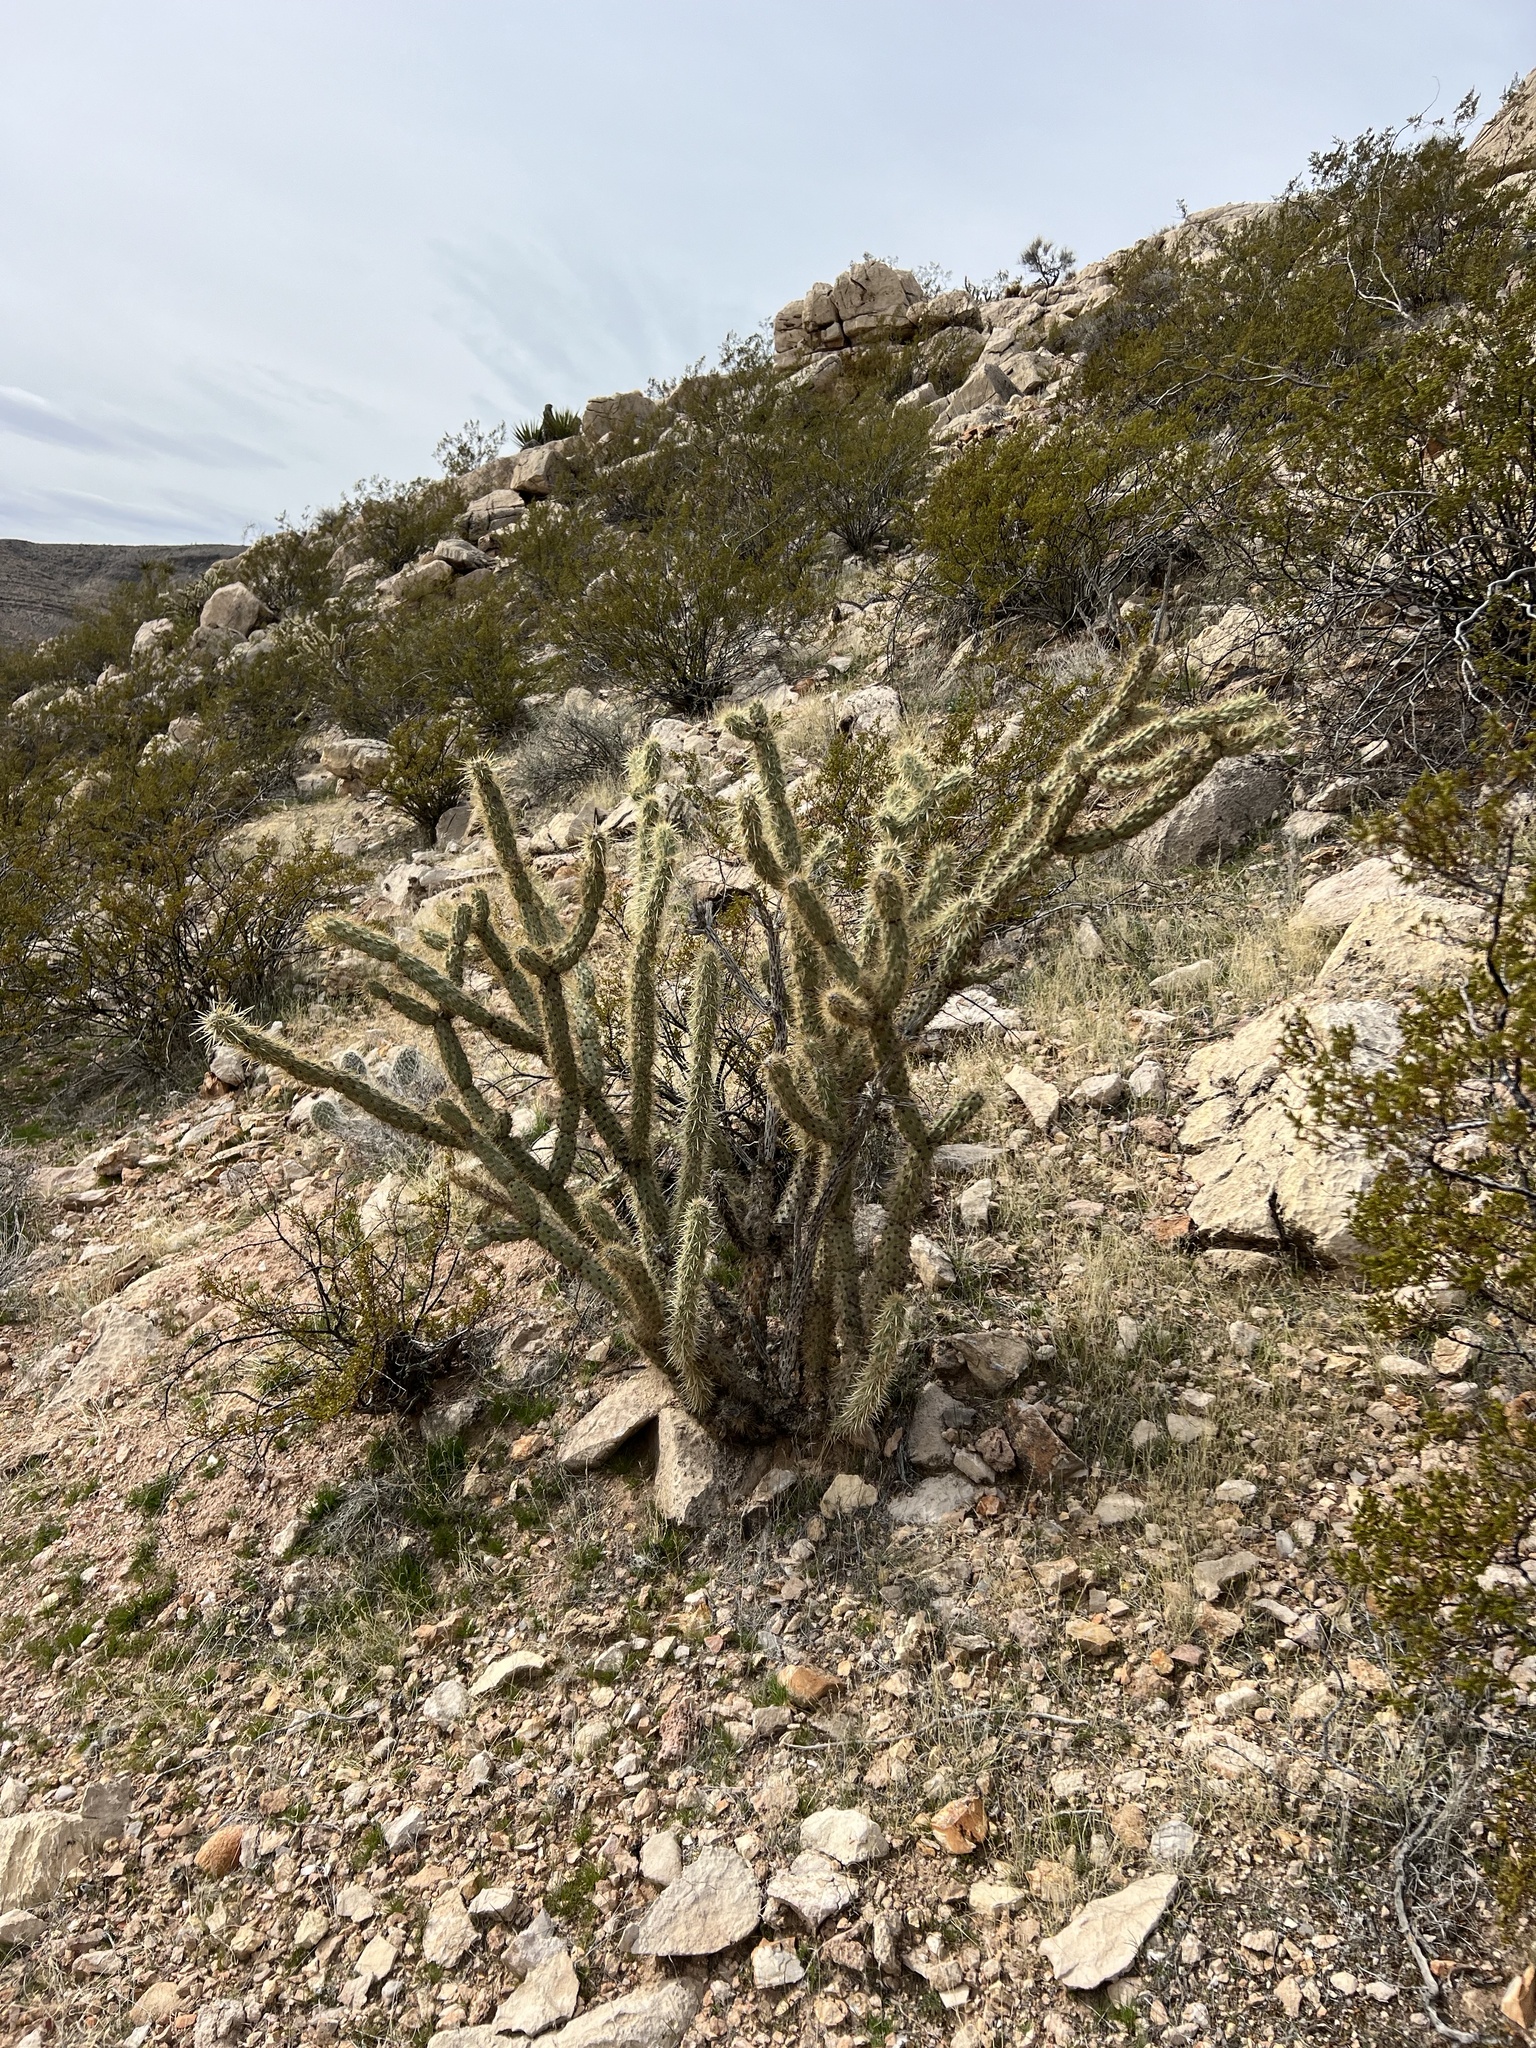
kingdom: Plantae
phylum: Tracheophyta
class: Magnoliopsida
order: Caryophyllales
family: Cactaceae
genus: Cylindropuntia
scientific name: Cylindropuntia acanthocarpa
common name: Buckhorn cholla
